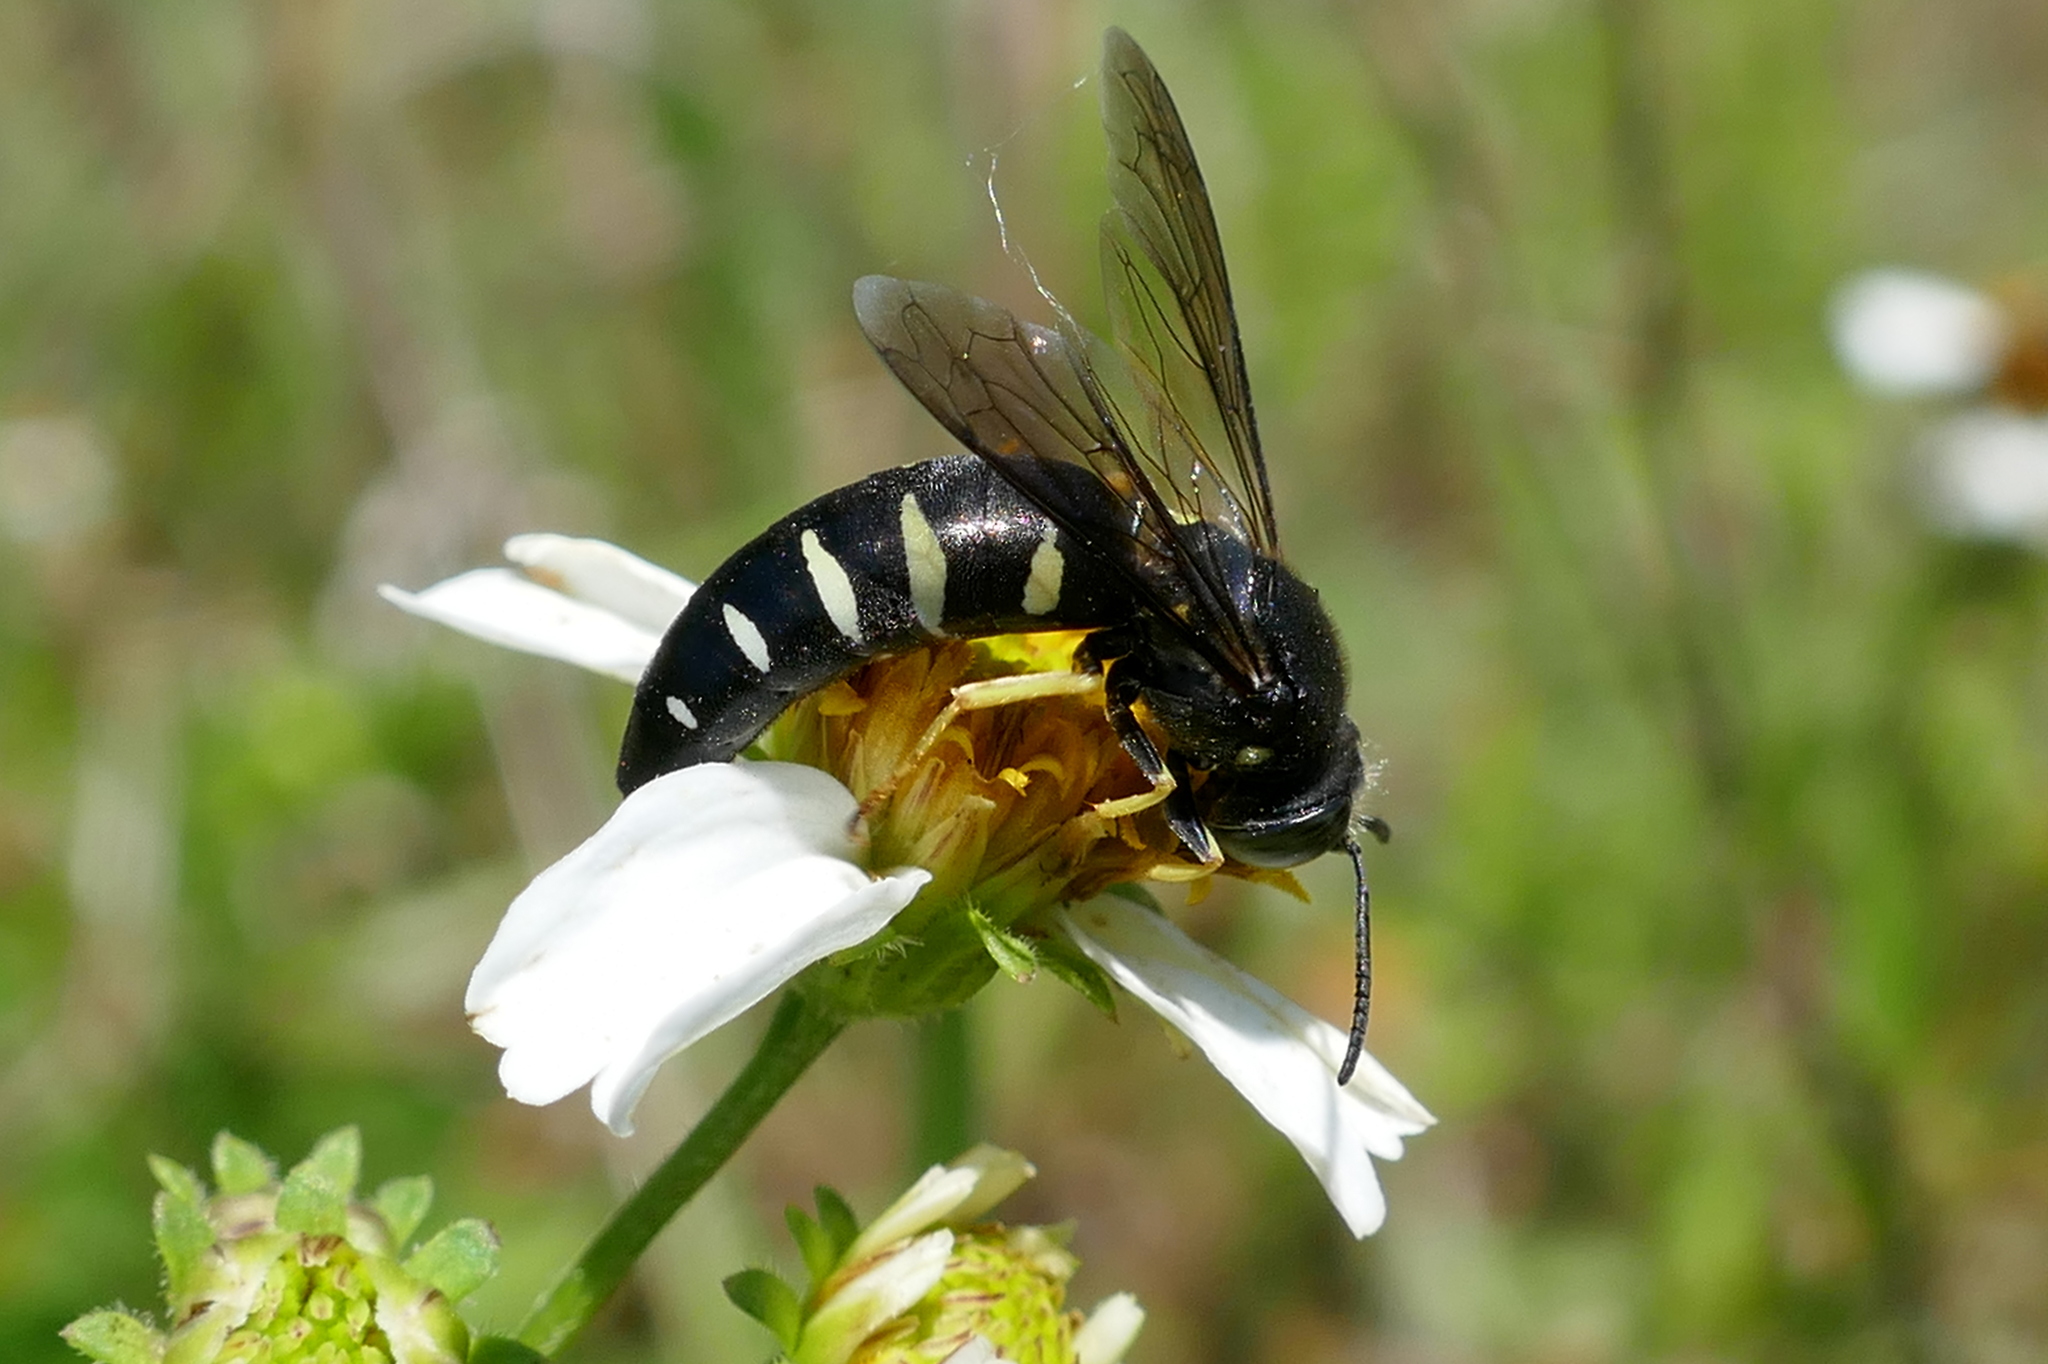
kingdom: Animalia
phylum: Arthropoda
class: Insecta
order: Hymenoptera
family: Crabronidae
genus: Bicyrtes
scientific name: Bicyrtes quadrifasciatus
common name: Four-banded stink bug hunter wasp
